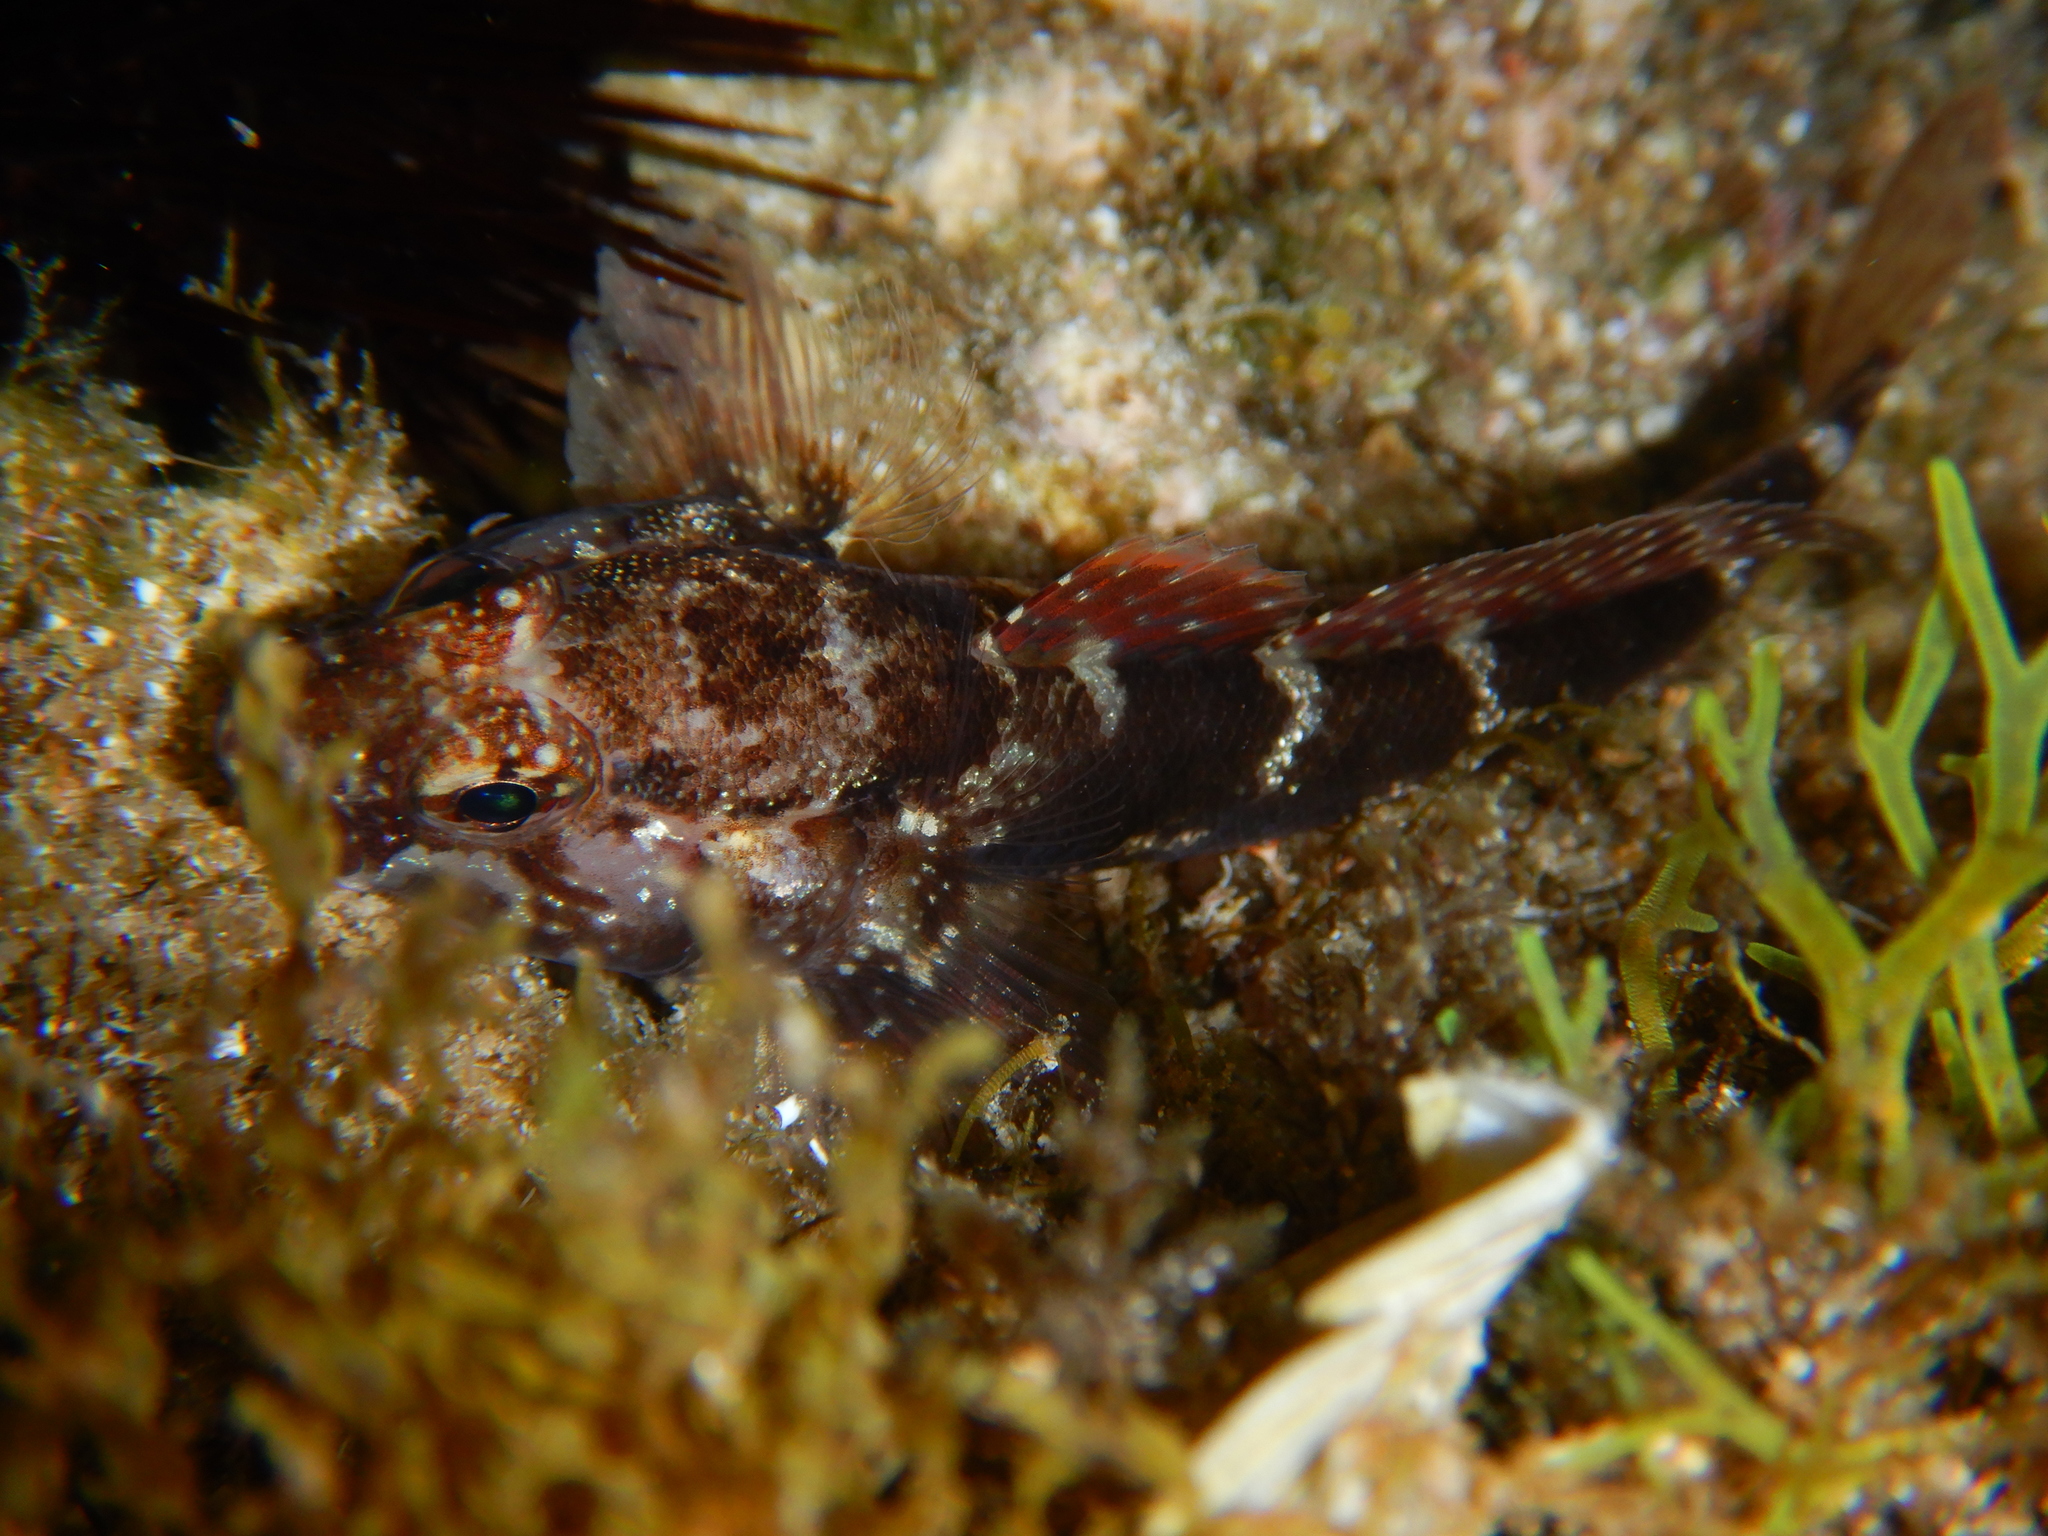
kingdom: Animalia
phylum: Chordata
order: Perciformes
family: Gobiidae
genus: Gobius
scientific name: Gobius paganellus
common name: Rock goby
